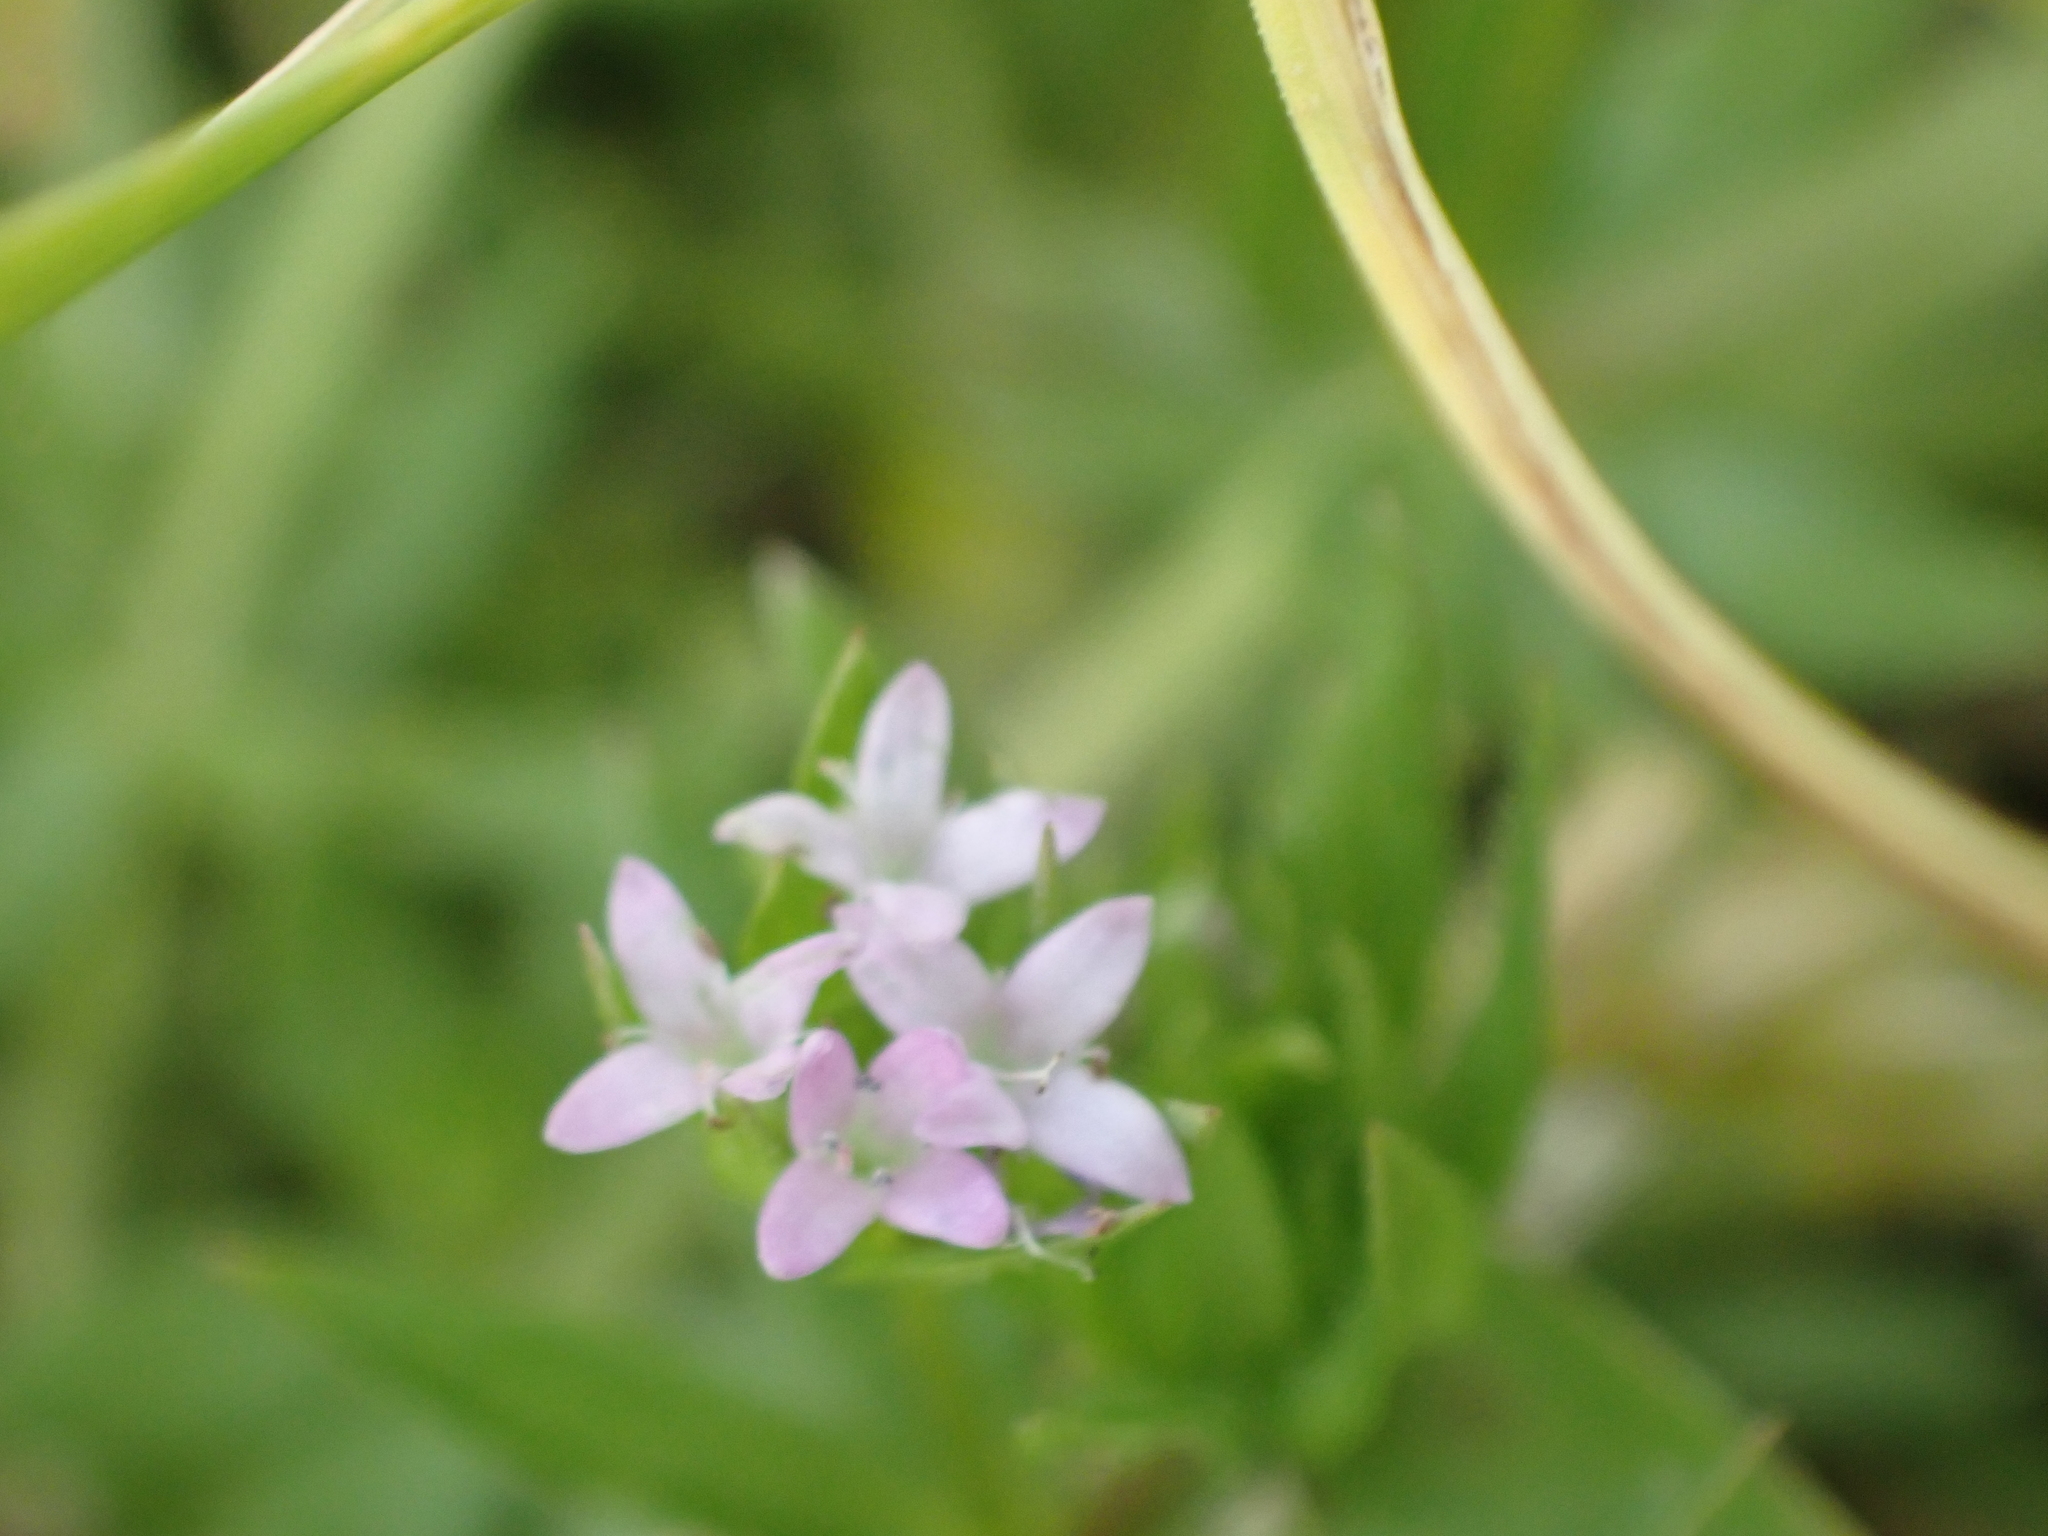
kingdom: Plantae
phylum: Tracheophyta
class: Magnoliopsida
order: Gentianales
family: Rubiaceae
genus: Sherardia
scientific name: Sherardia arvensis
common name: Field madder
